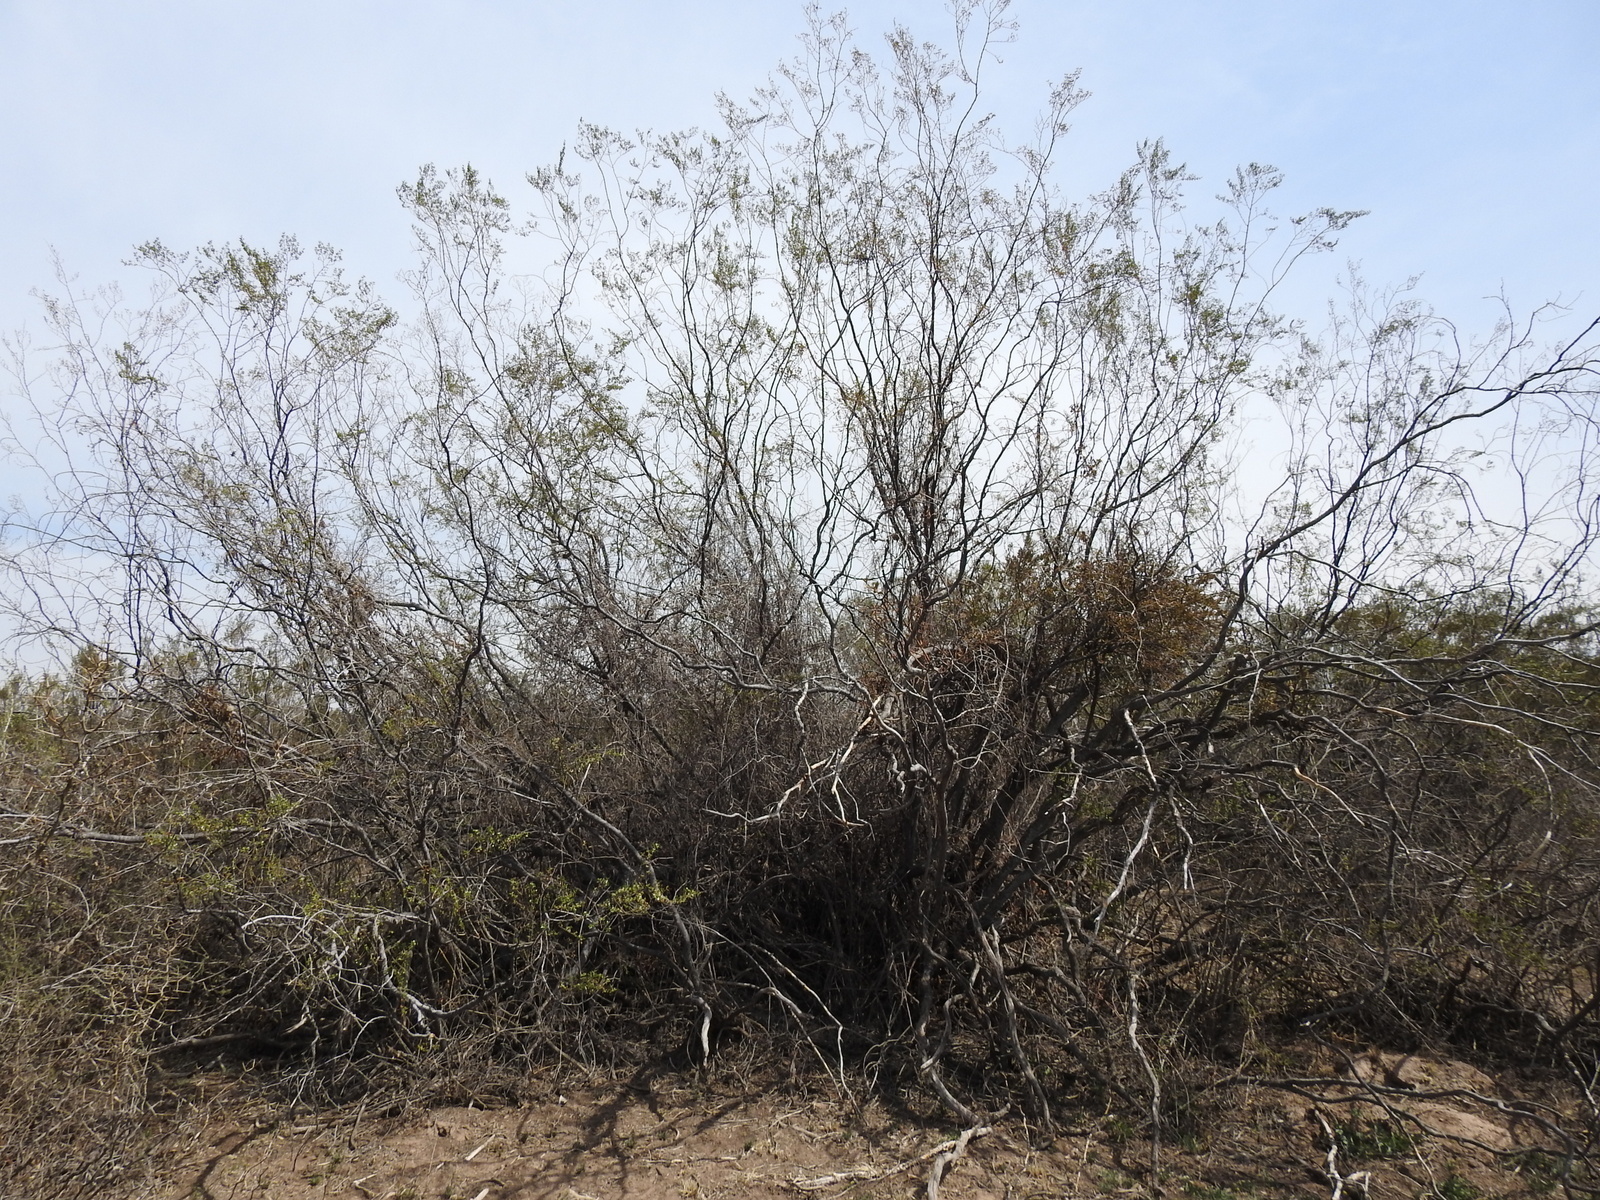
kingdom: Plantae
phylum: Tracheophyta
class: Magnoliopsida
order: Zygophyllales
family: Zygophyllaceae
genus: Larrea
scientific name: Larrea divaricata
